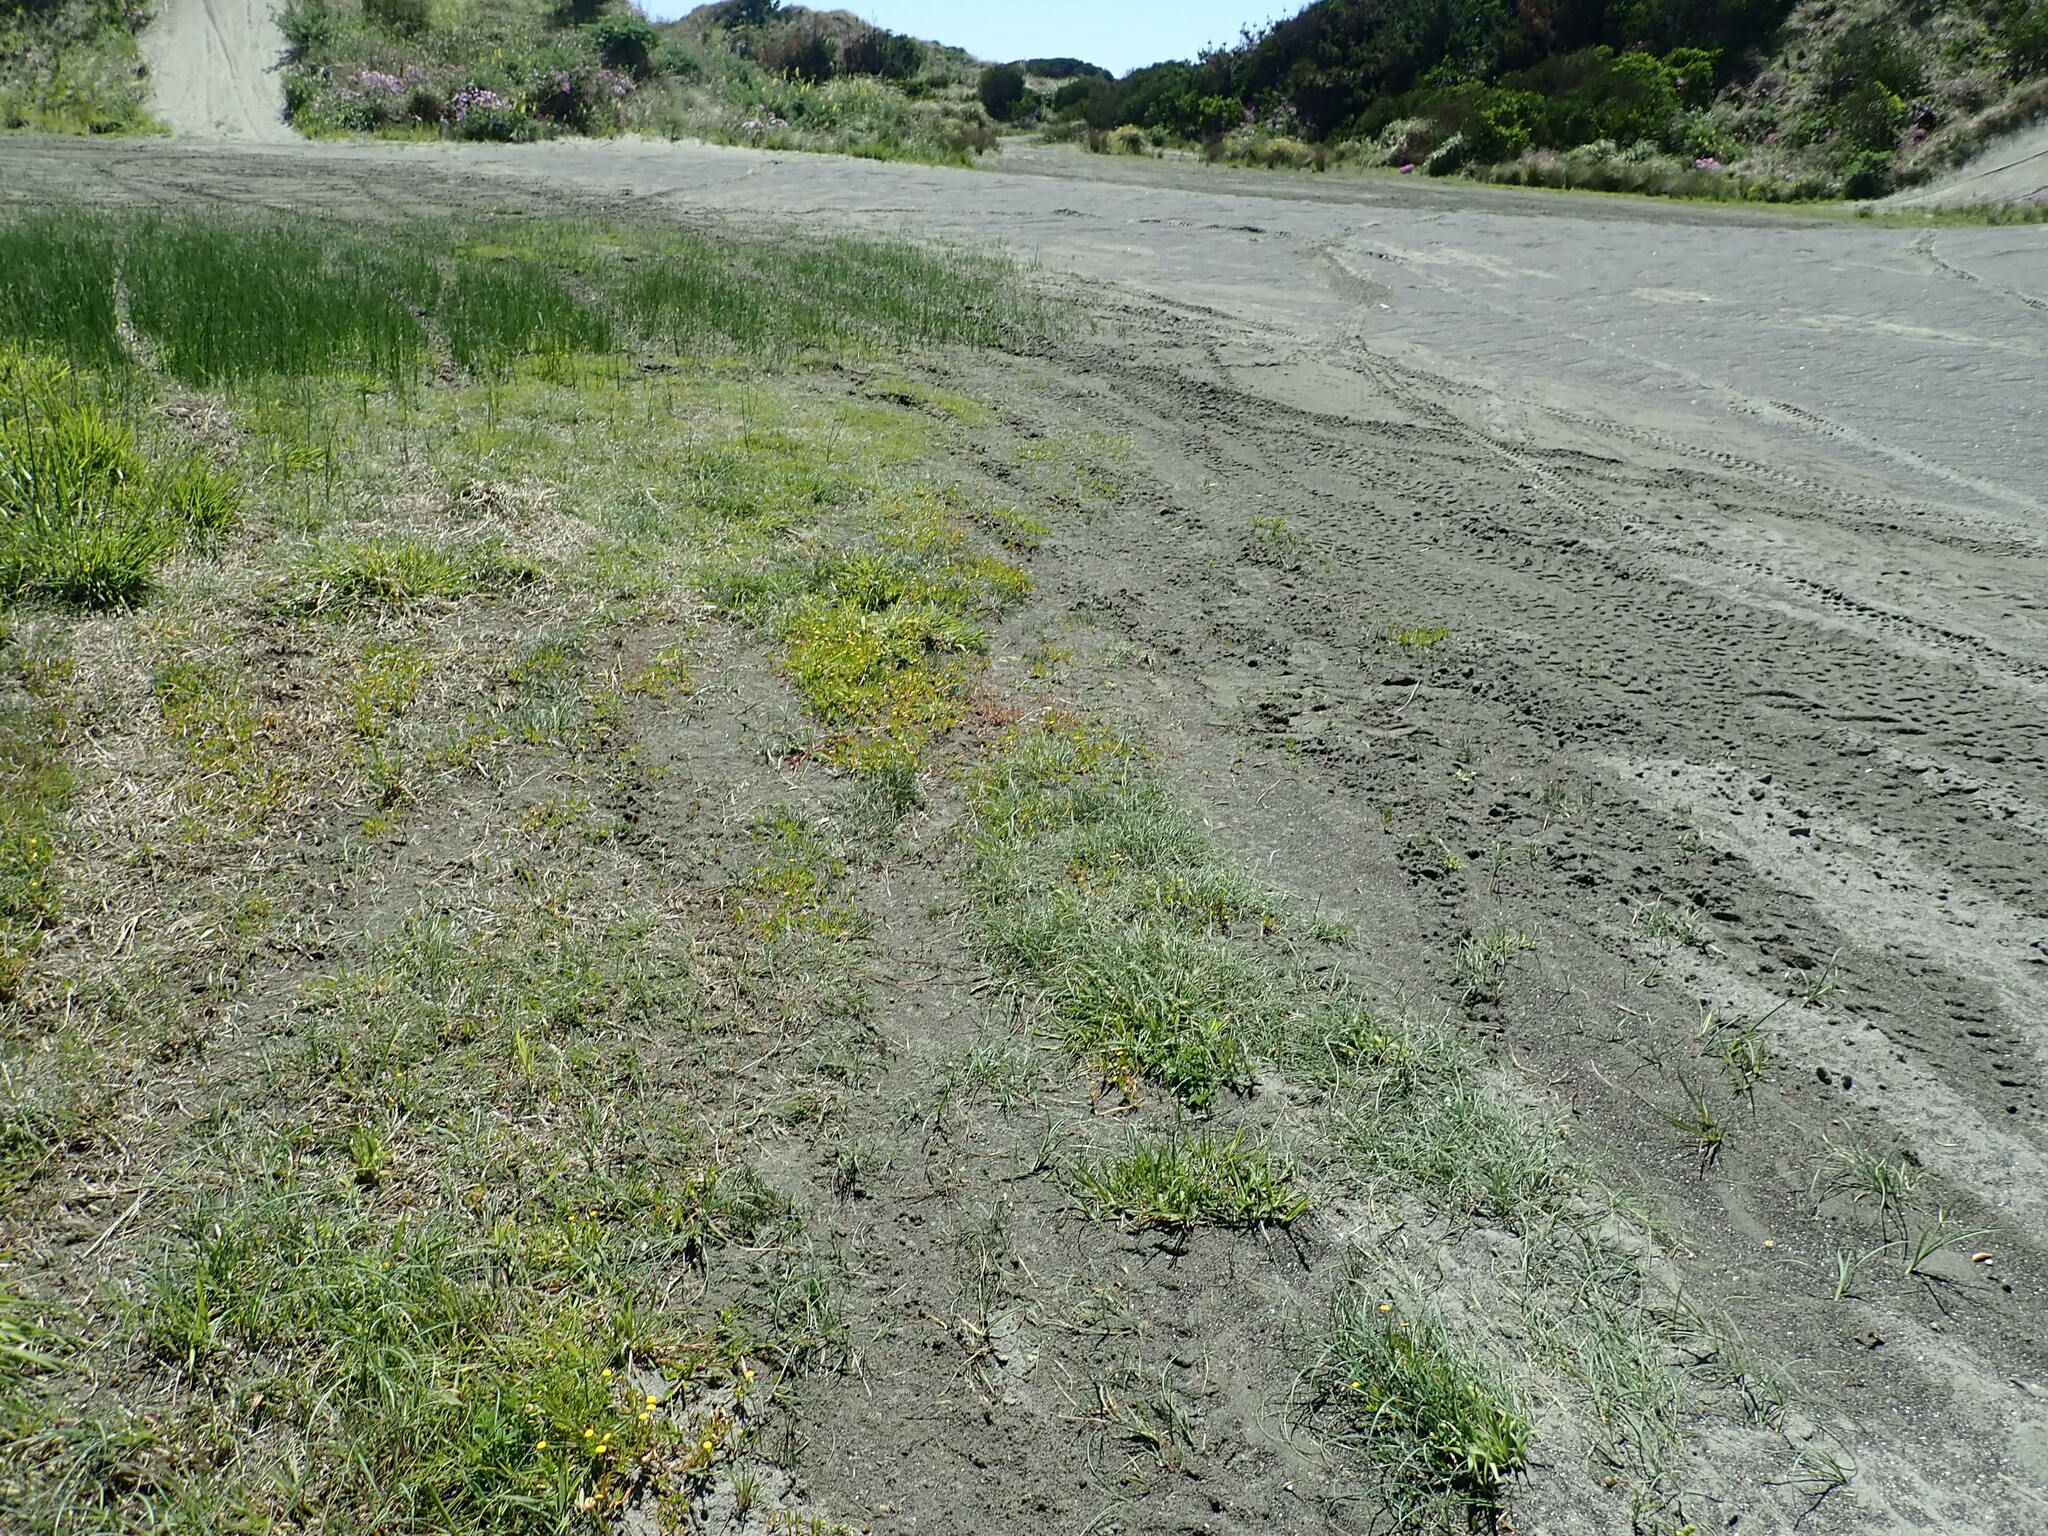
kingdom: Plantae
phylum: Tracheophyta
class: Magnoliopsida
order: Asterales
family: Asteraceae
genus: Cotula
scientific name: Cotula coronopifolia
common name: Buttonweed
